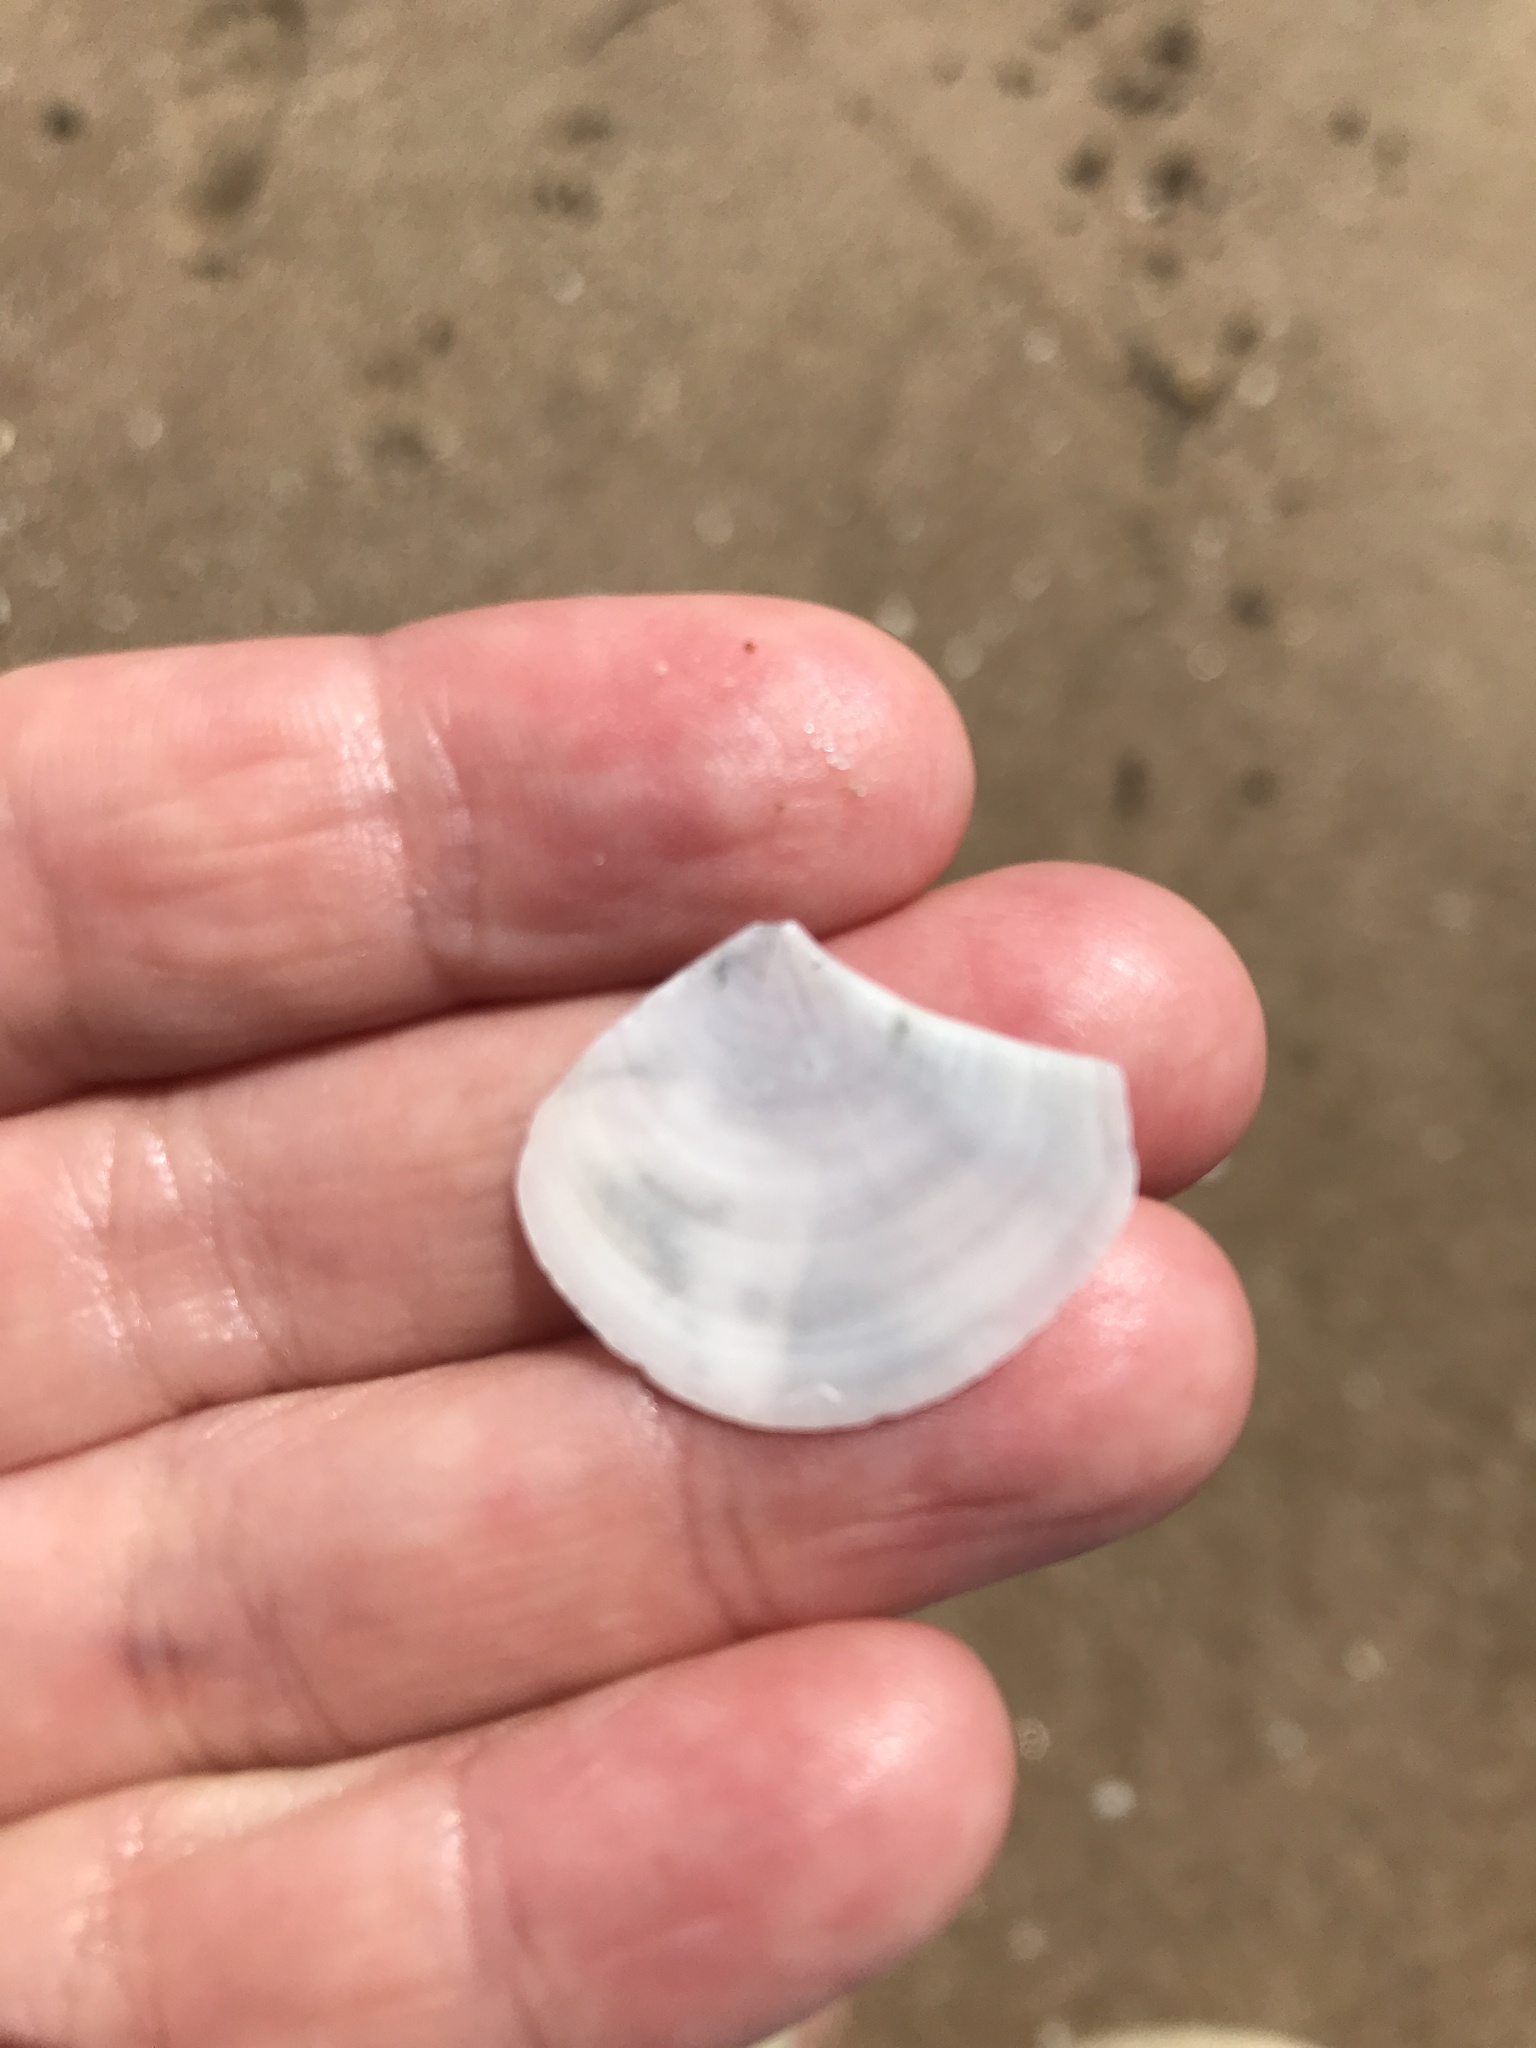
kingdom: Animalia
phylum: Mollusca
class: Bivalvia
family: Myochamidae
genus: Myadora
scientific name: Myadora striata
